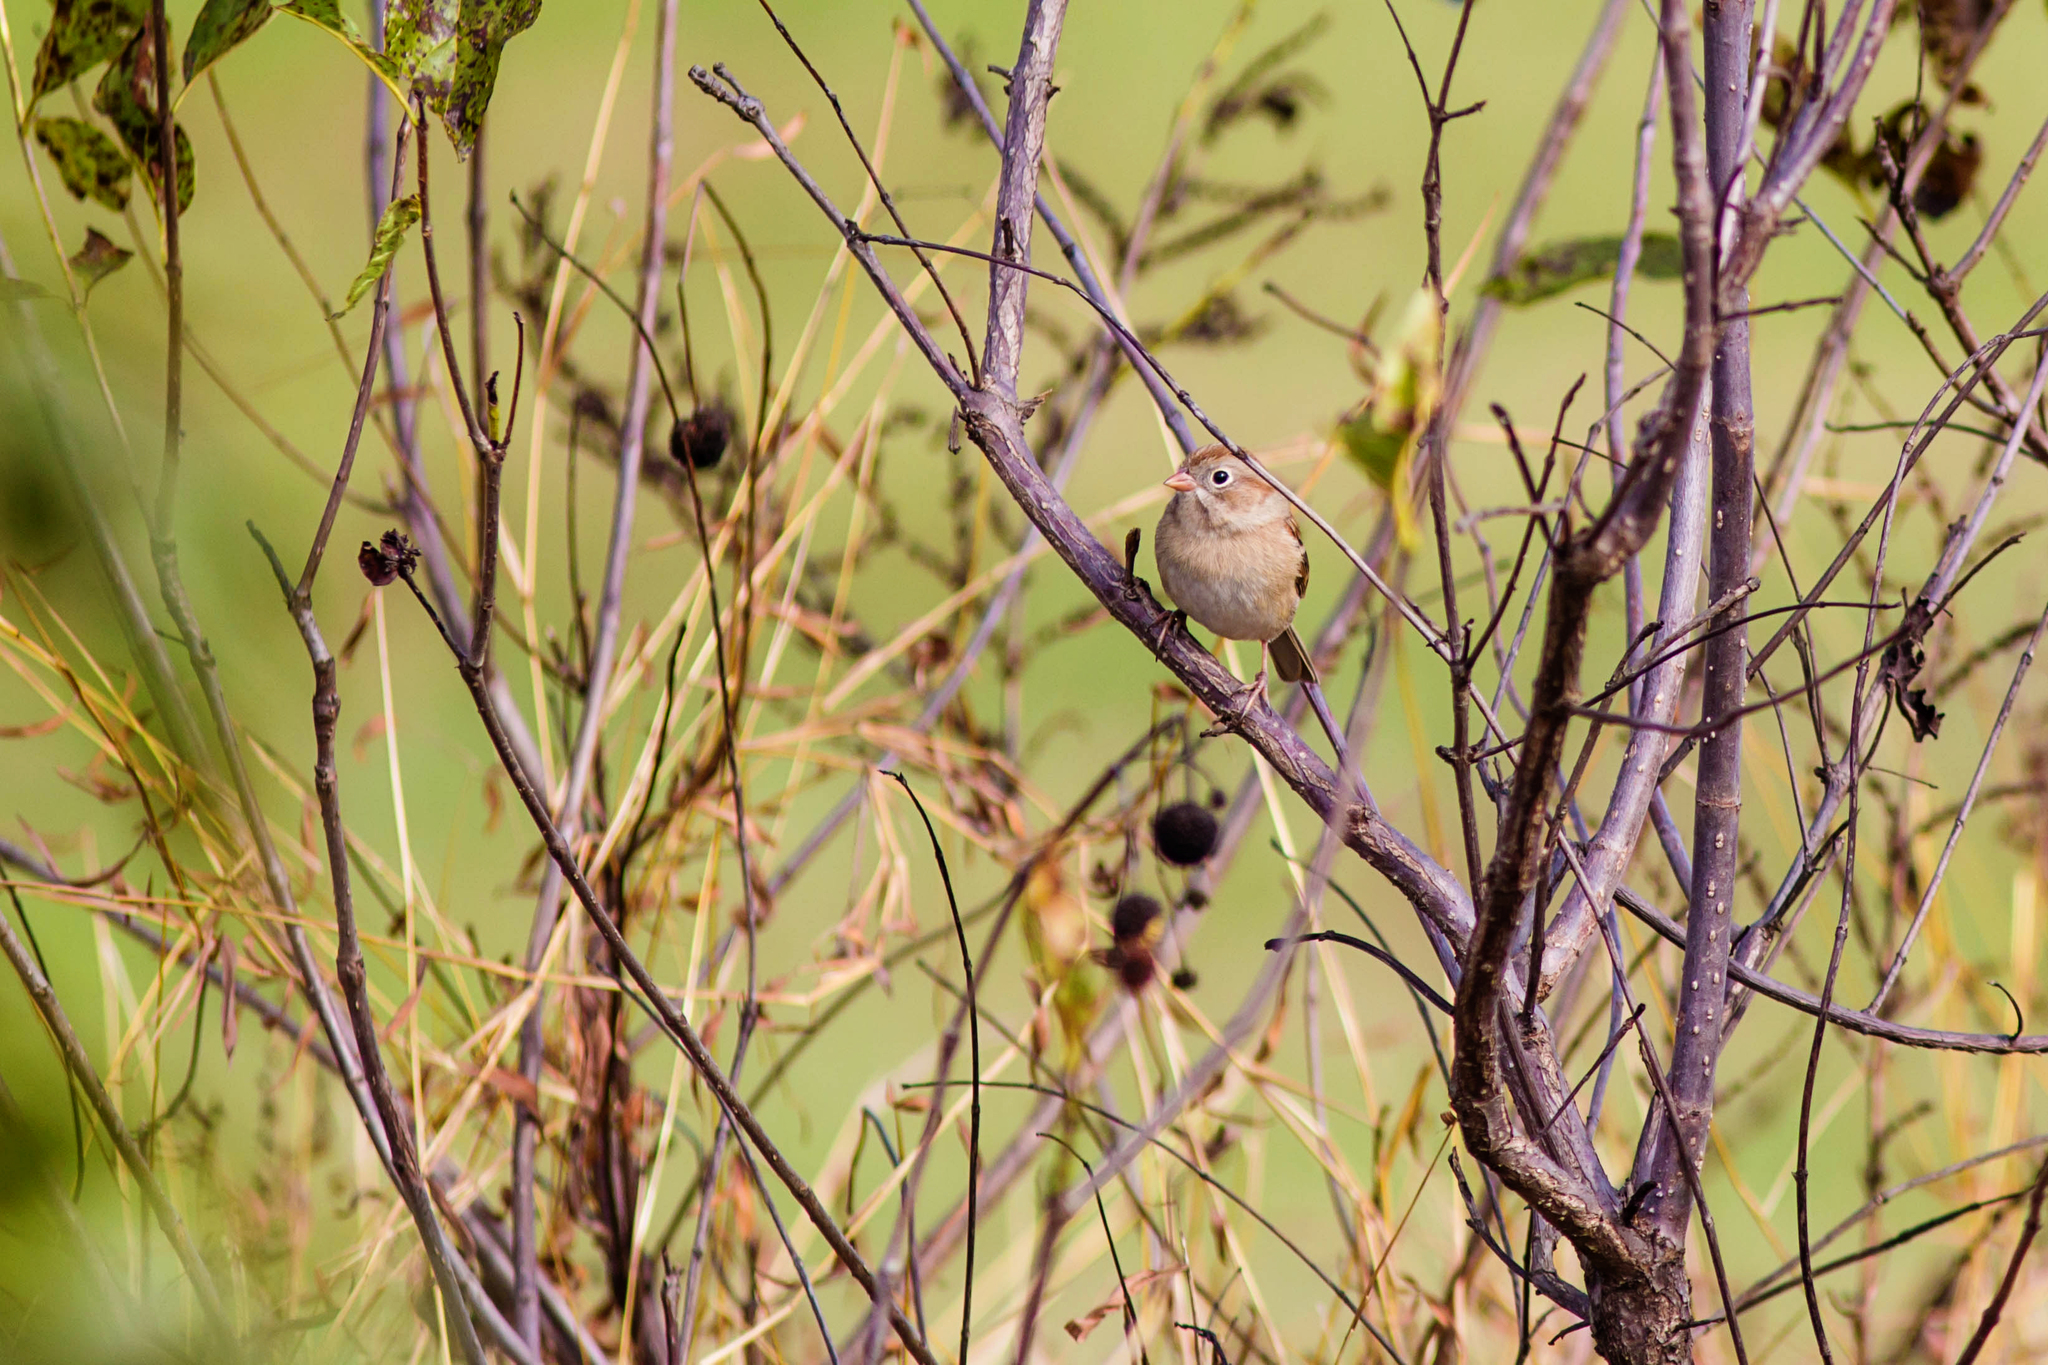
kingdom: Animalia
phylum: Chordata
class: Aves
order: Passeriformes
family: Passerellidae
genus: Spizella
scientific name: Spizella pusilla
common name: Field sparrow
